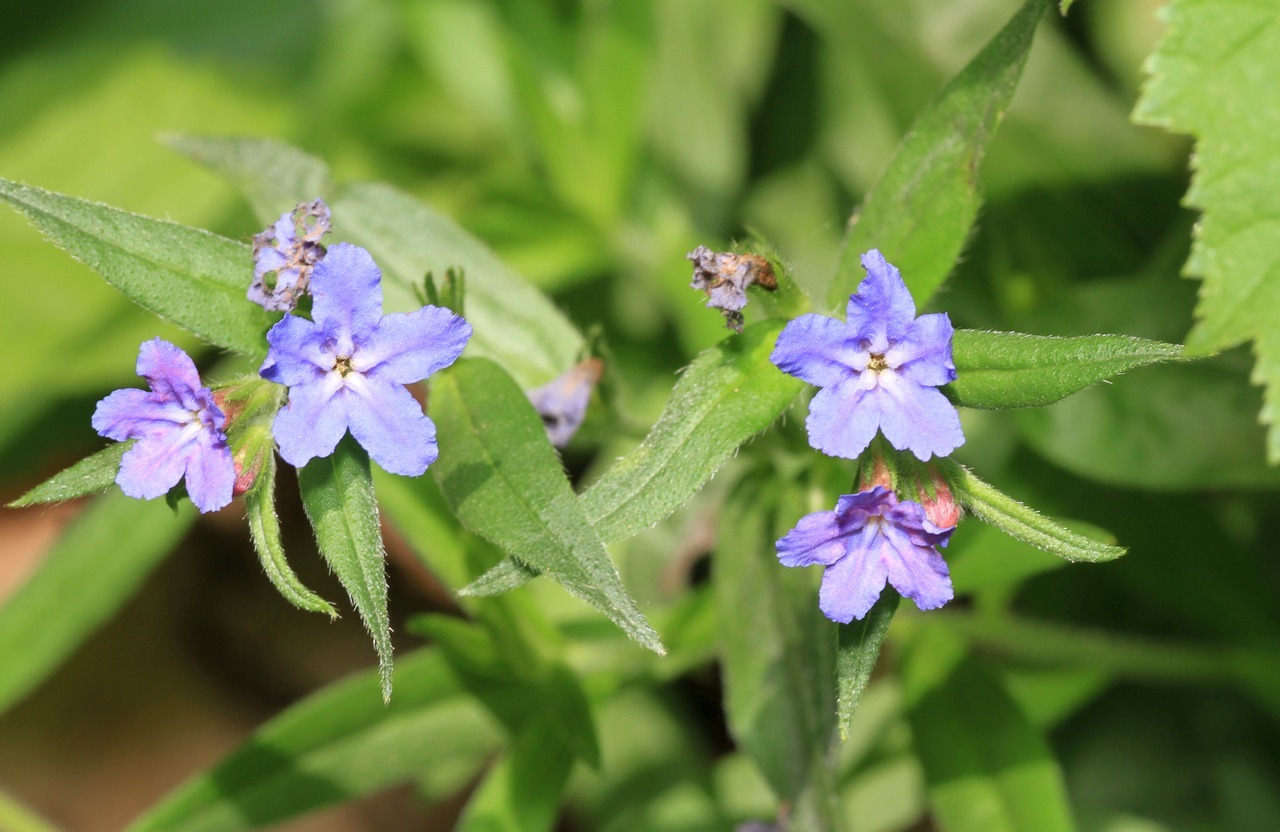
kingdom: Plantae
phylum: Tracheophyta
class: Magnoliopsida
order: Boraginales
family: Boraginaceae
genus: Aegonychon
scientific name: Aegonychon purpurocaeruleum
